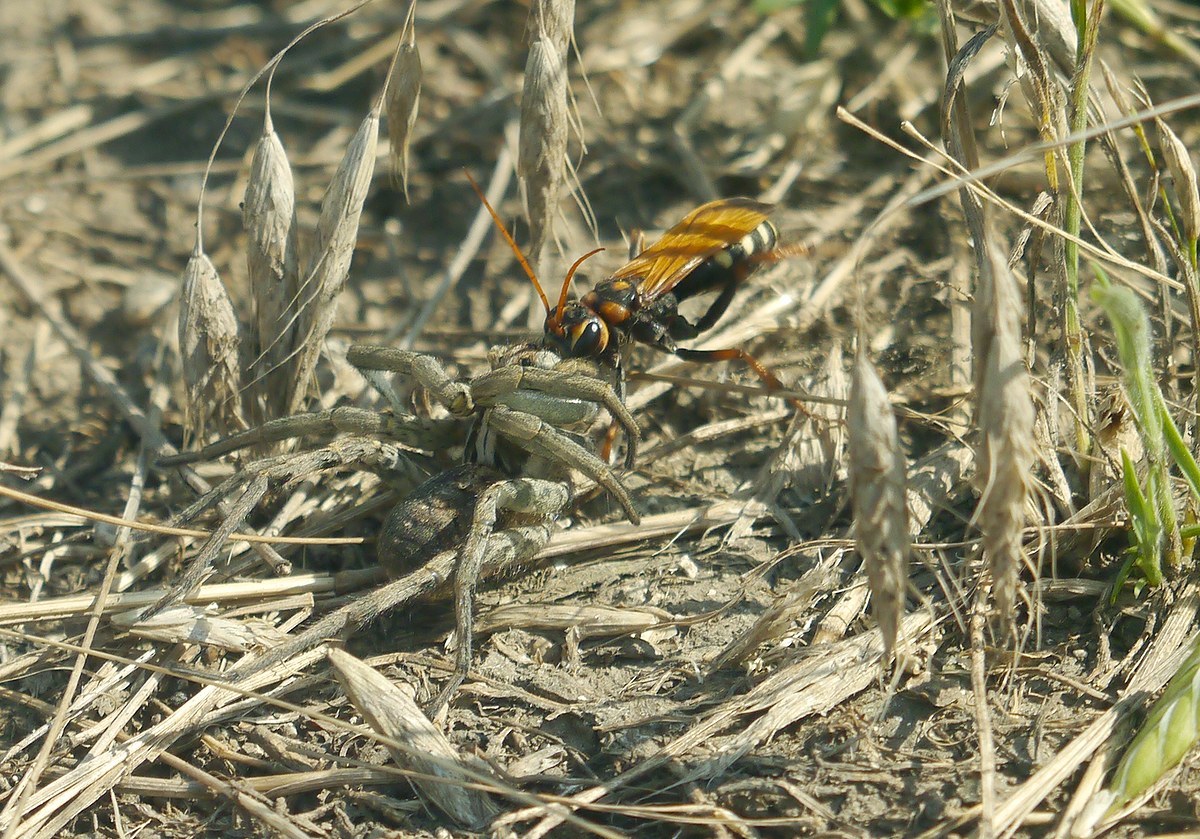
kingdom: Animalia
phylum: Arthropoda
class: Insecta
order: Hymenoptera
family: Pompilidae
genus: Cryptocheilus
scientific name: Cryptocheilus octomaculatus
